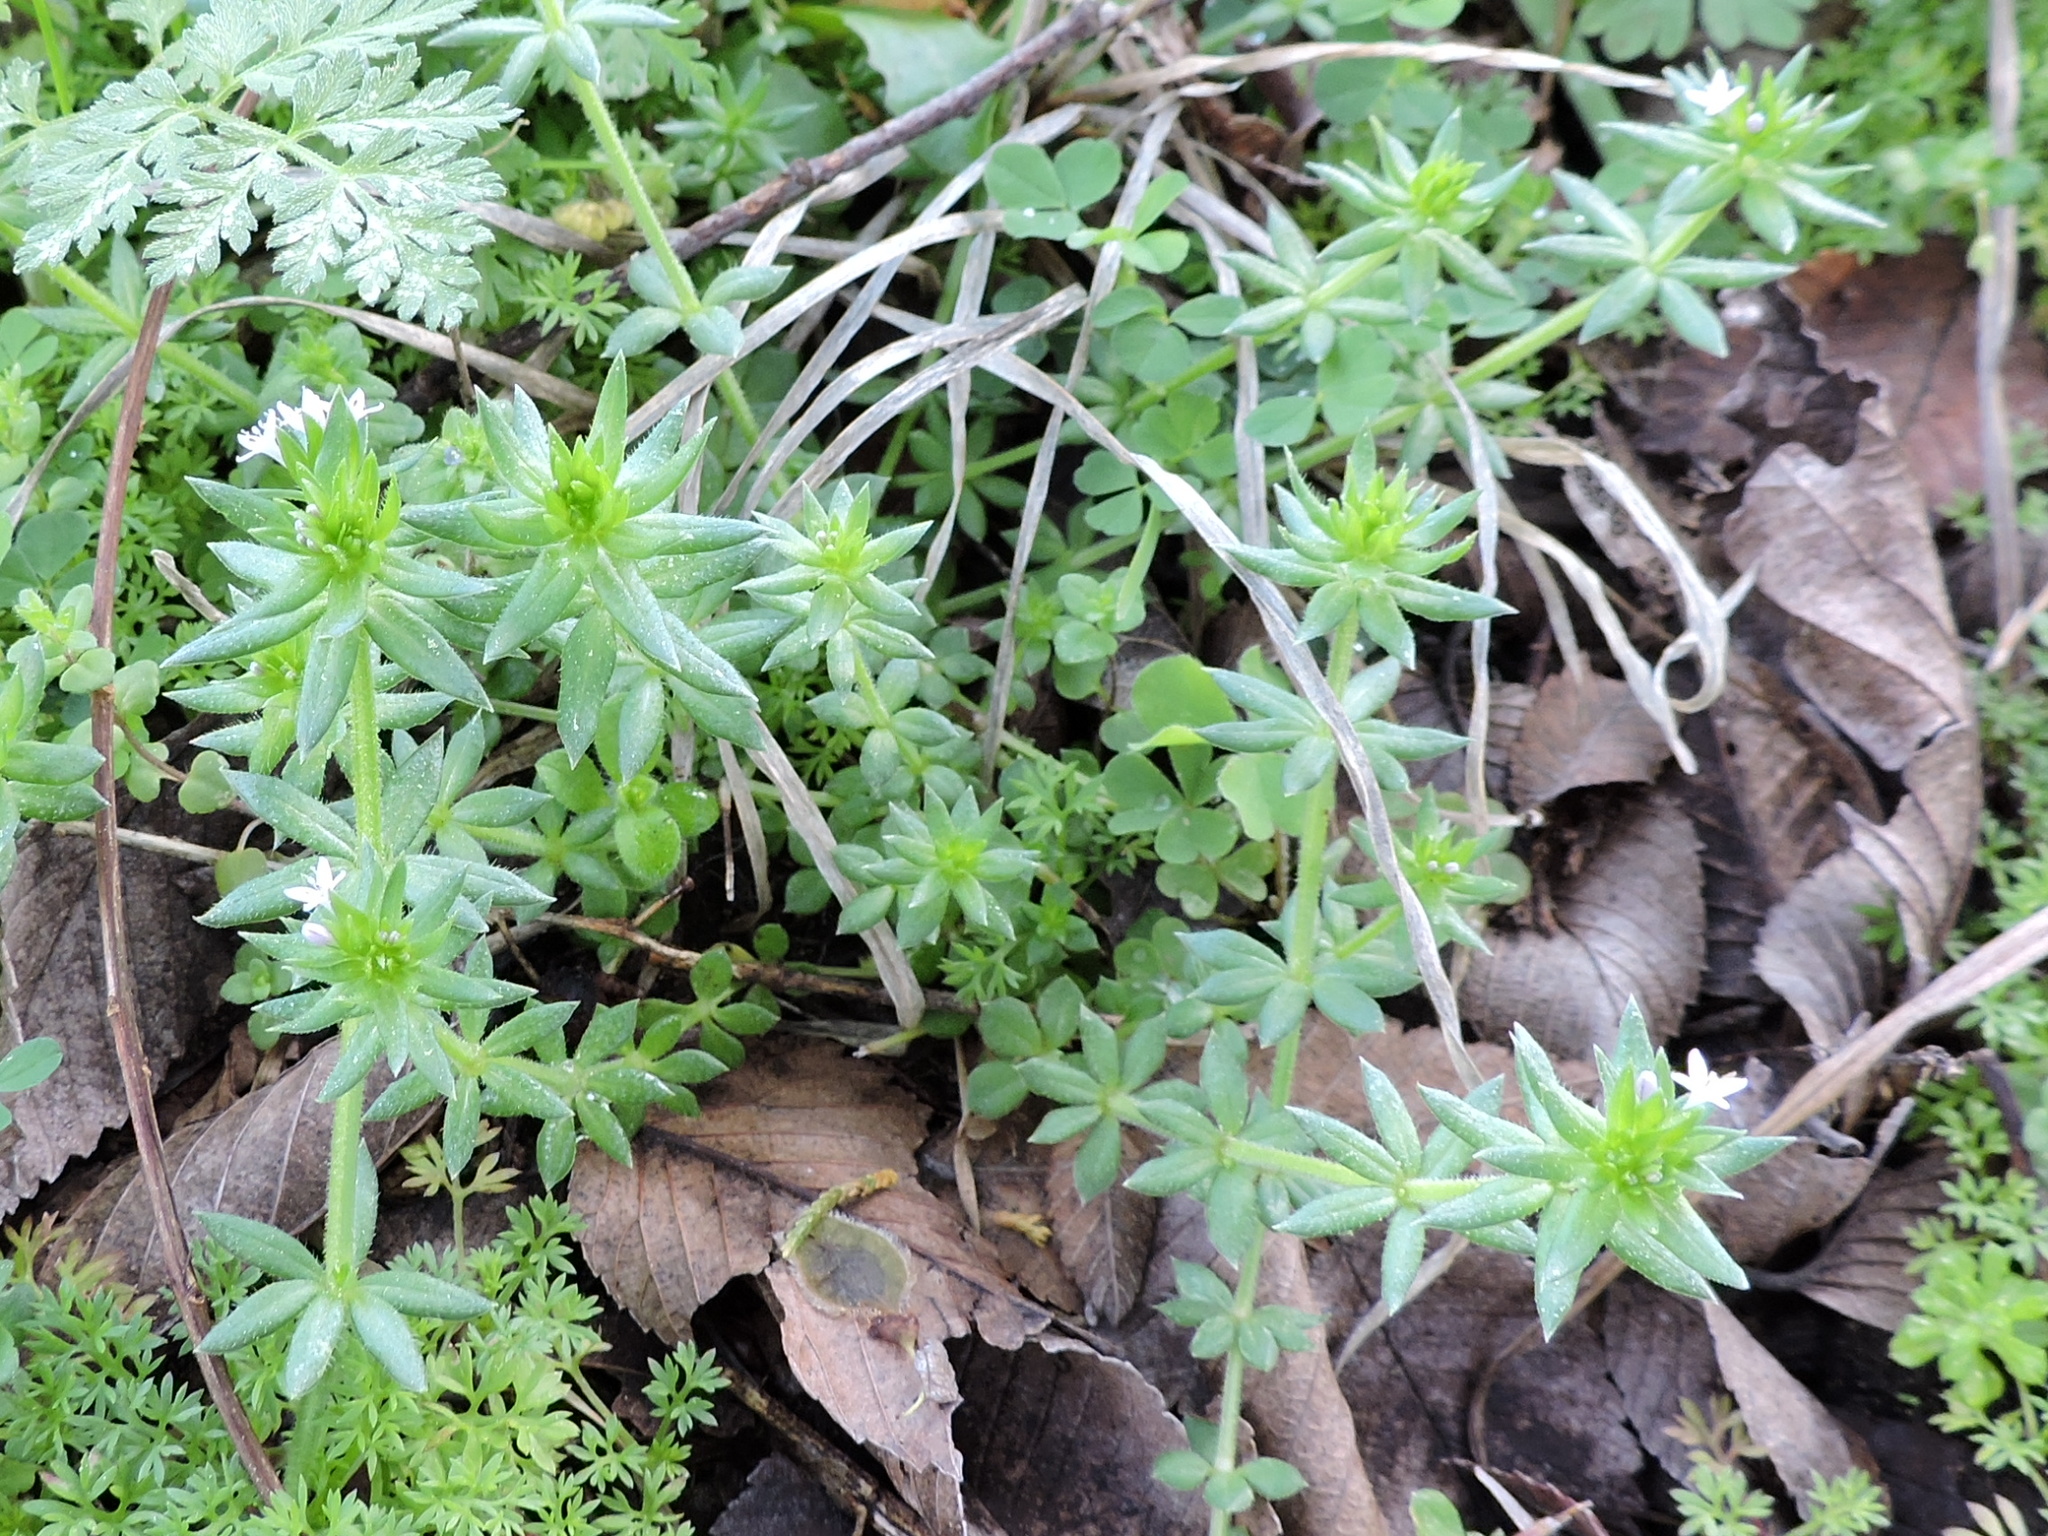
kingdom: Plantae
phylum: Tracheophyta
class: Magnoliopsida
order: Gentianales
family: Rubiaceae
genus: Sherardia
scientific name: Sherardia arvensis
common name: Field madder
